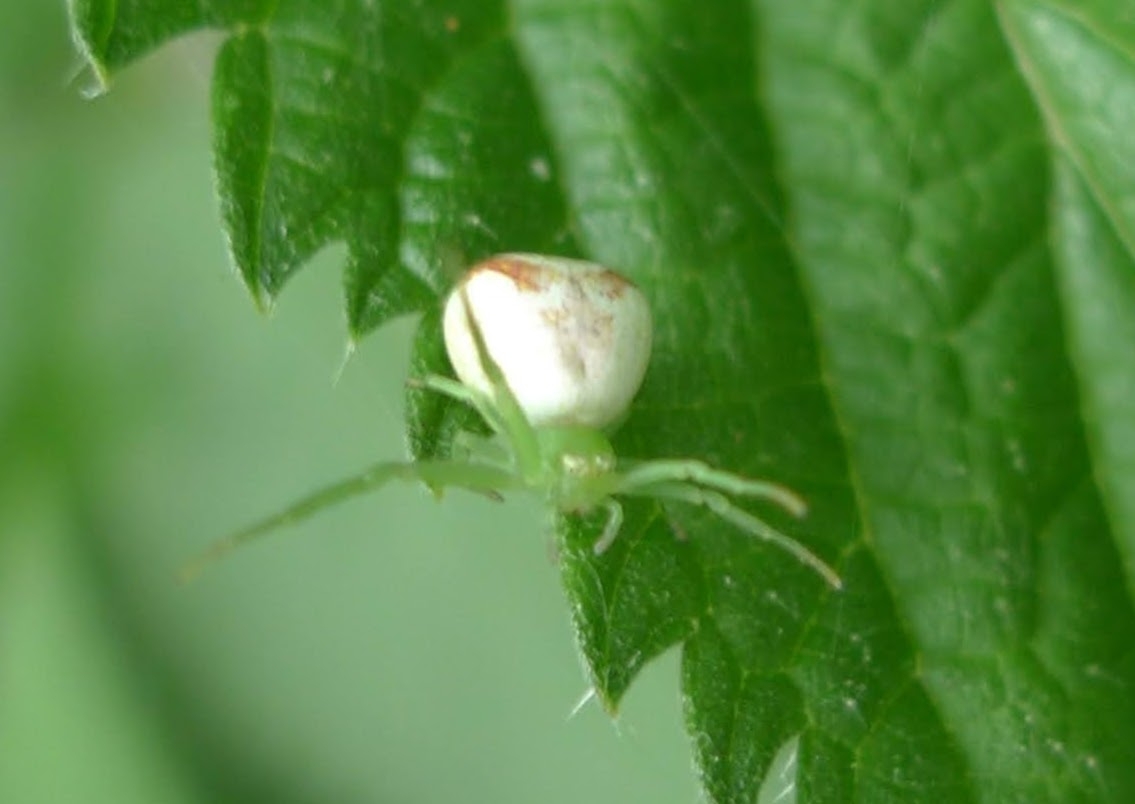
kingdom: Animalia
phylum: Arthropoda
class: Arachnida
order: Araneae
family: Thomisidae
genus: Ebrechtella
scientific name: Ebrechtella tricuspidata
